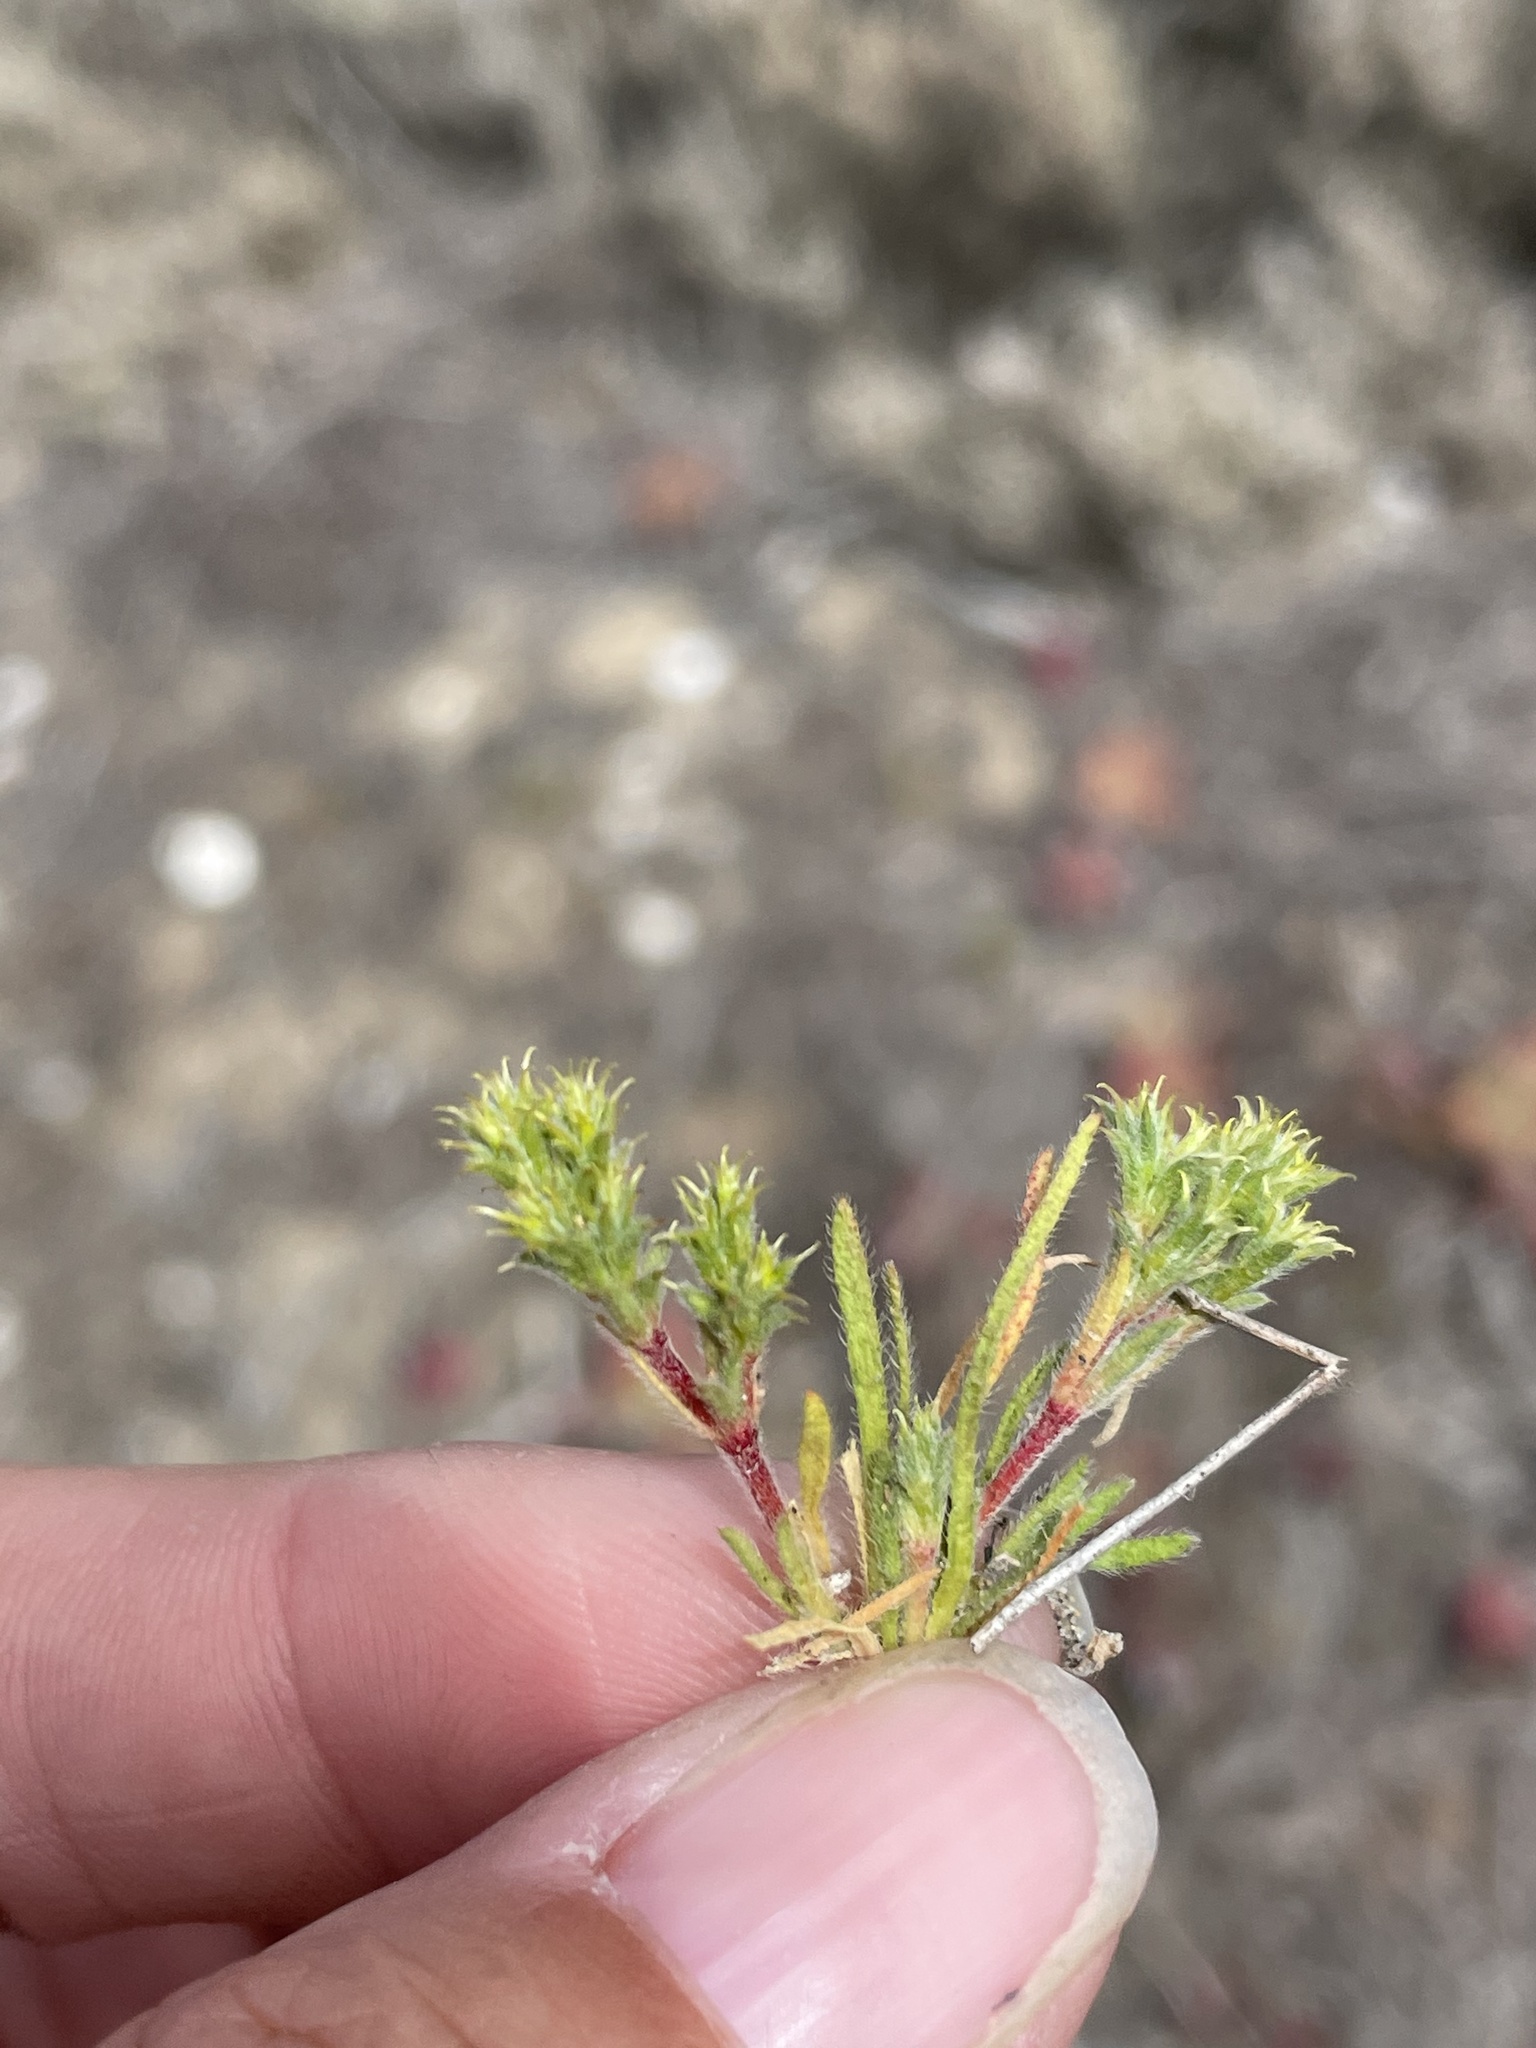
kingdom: Plantae
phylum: Tracheophyta
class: Magnoliopsida
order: Caryophyllales
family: Polygonaceae
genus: Lastarriaea
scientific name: Lastarriaea coriacea
